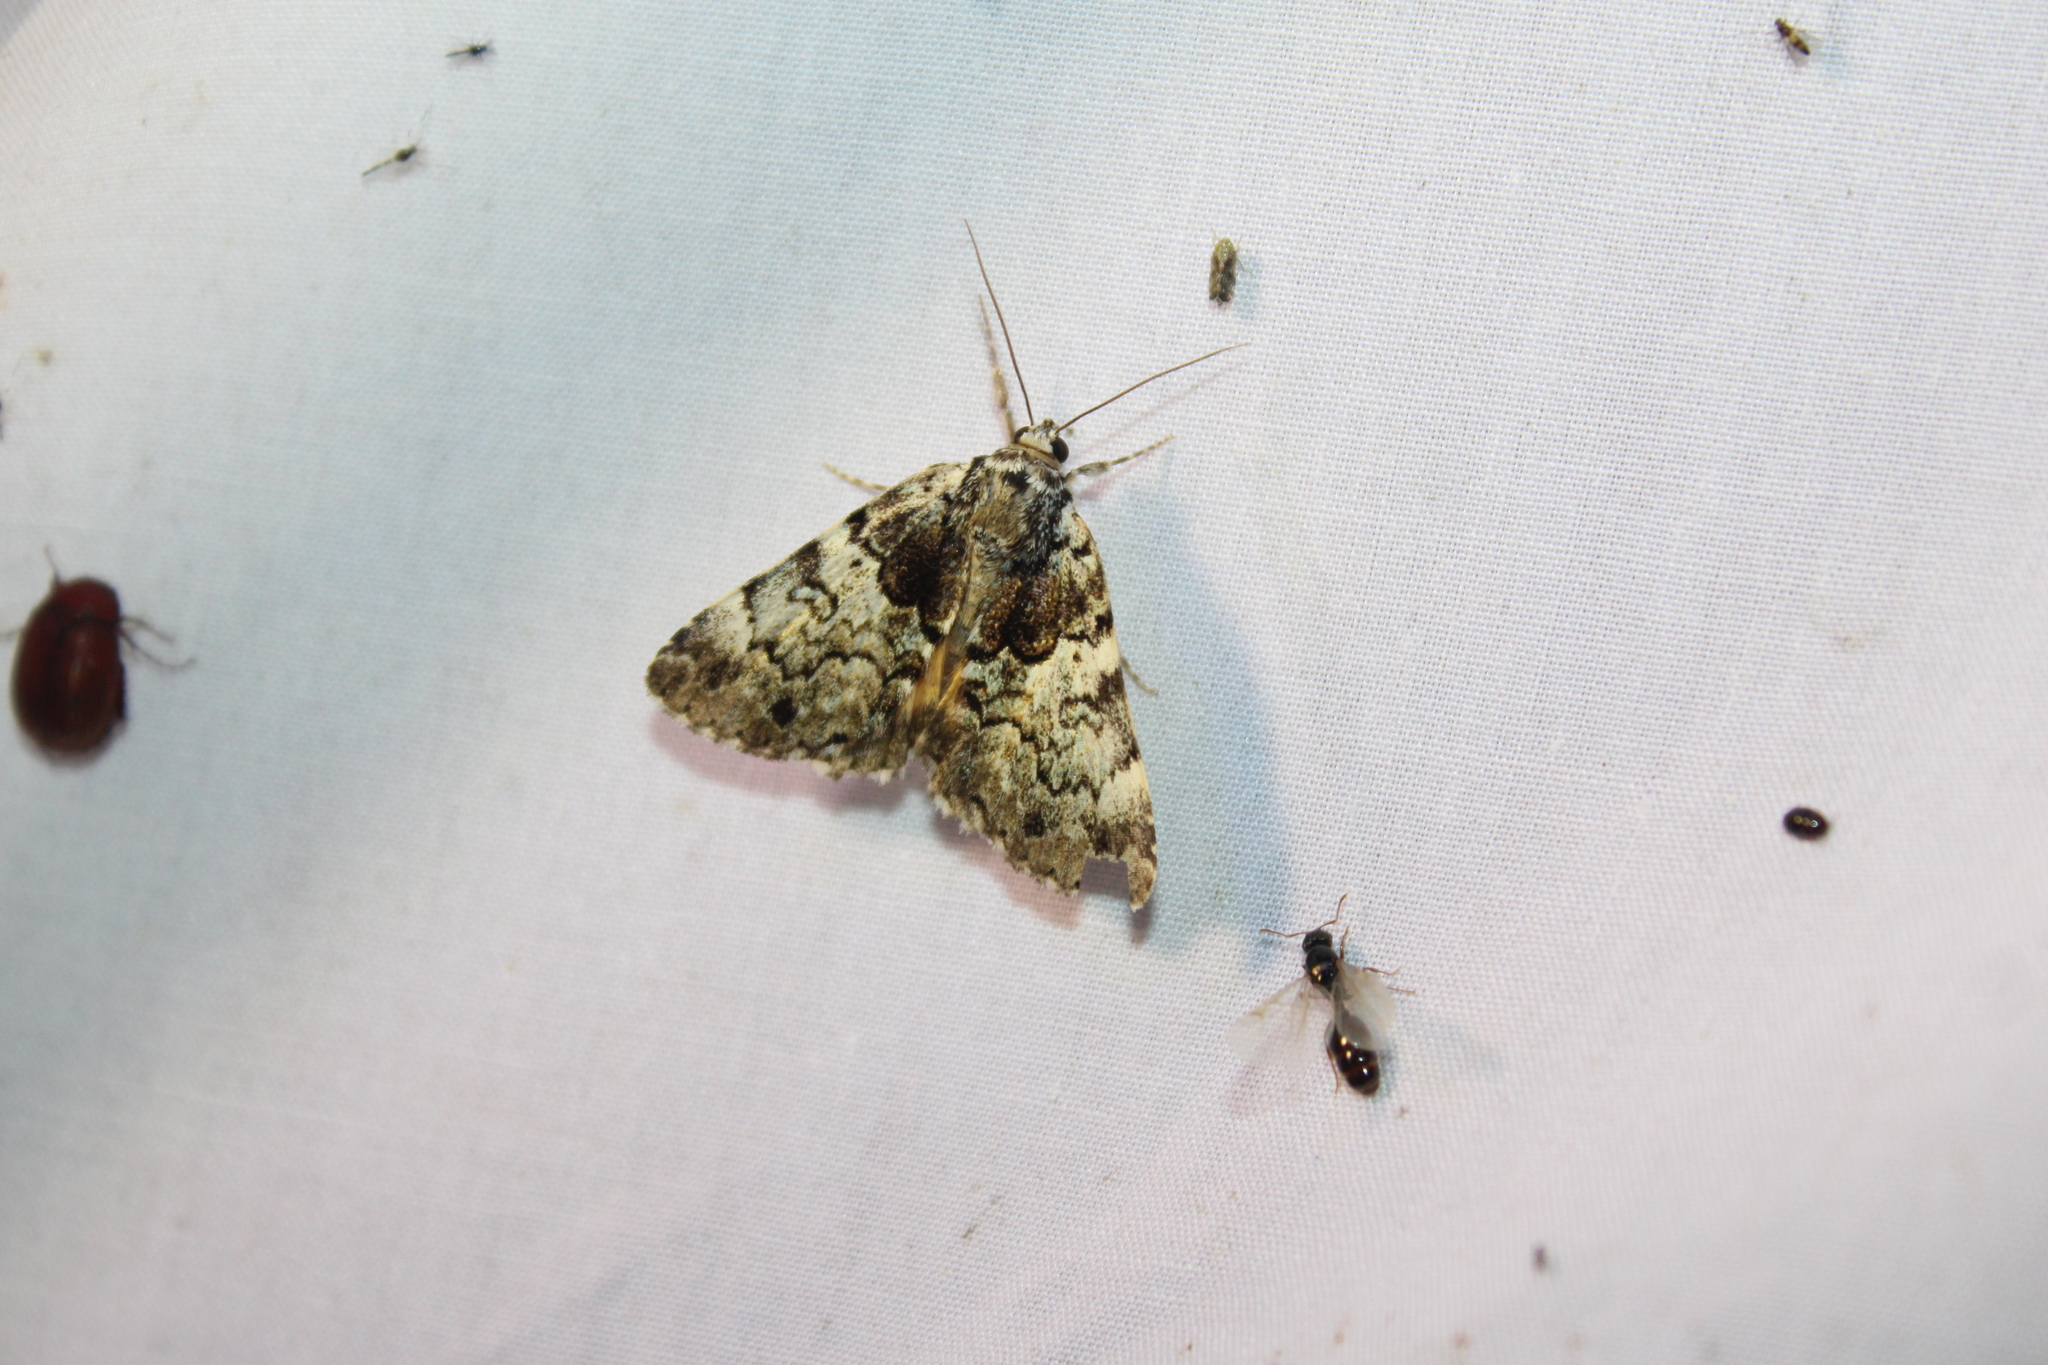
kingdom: Animalia
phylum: Arthropoda
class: Insecta
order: Lepidoptera
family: Erebidae
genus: Allotria
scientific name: Allotria elonympha
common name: False underwing
